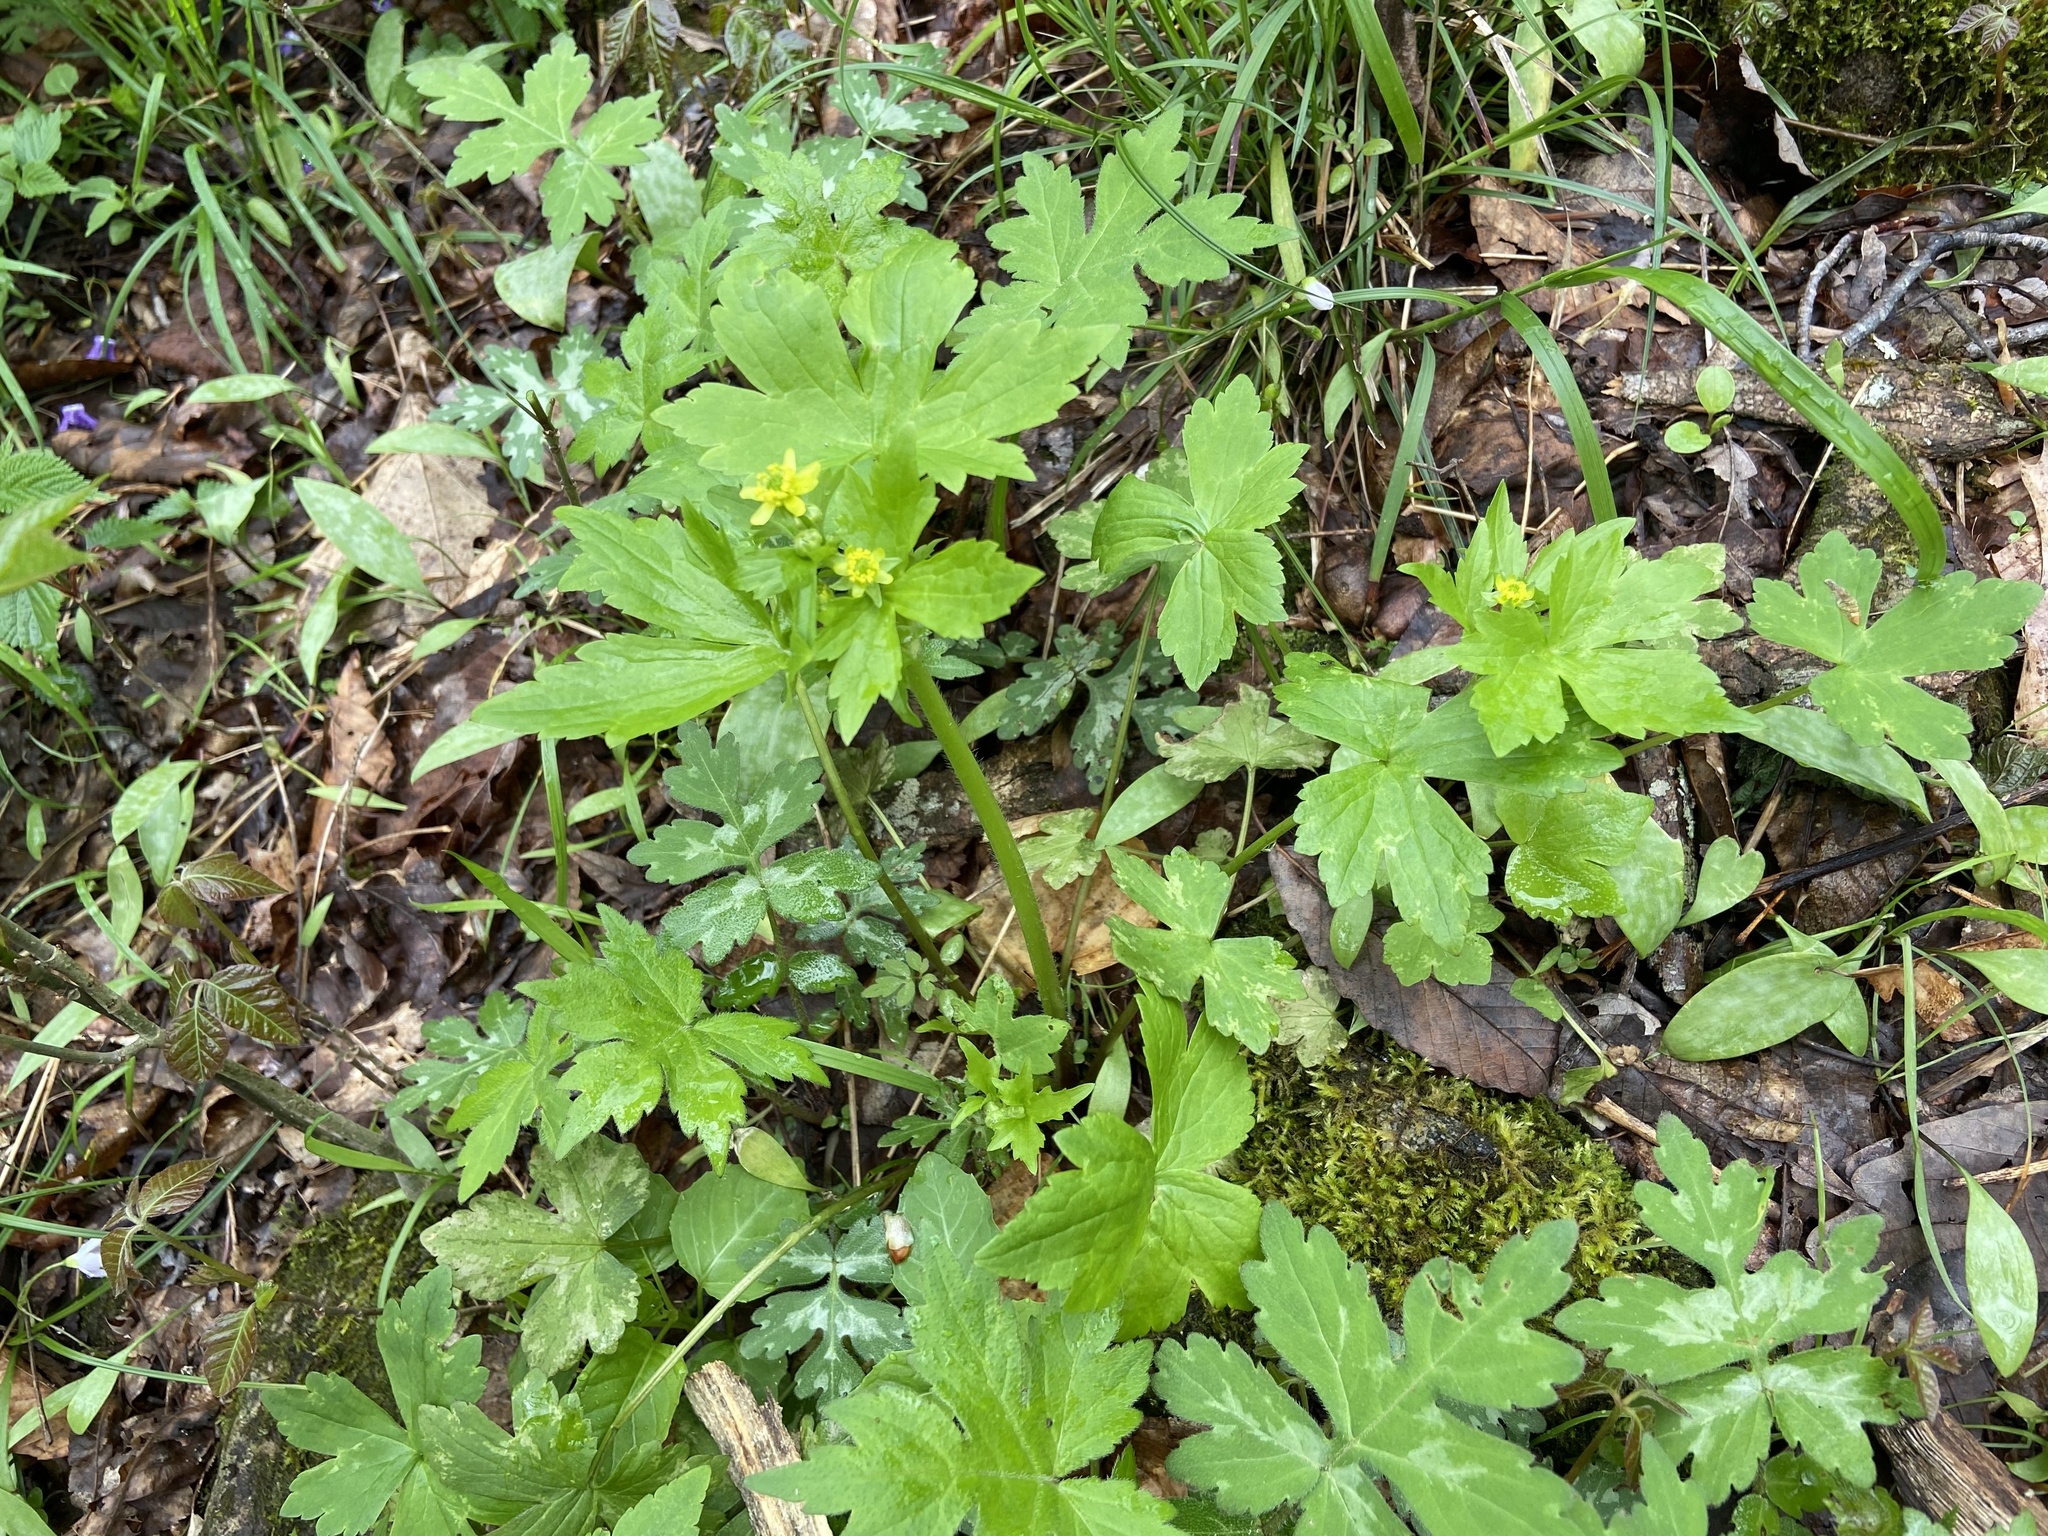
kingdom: Plantae
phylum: Tracheophyta
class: Magnoliopsida
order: Ranunculales
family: Ranunculaceae
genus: Ranunculus
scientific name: Ranunculus recurvatus
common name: Blisterwort
